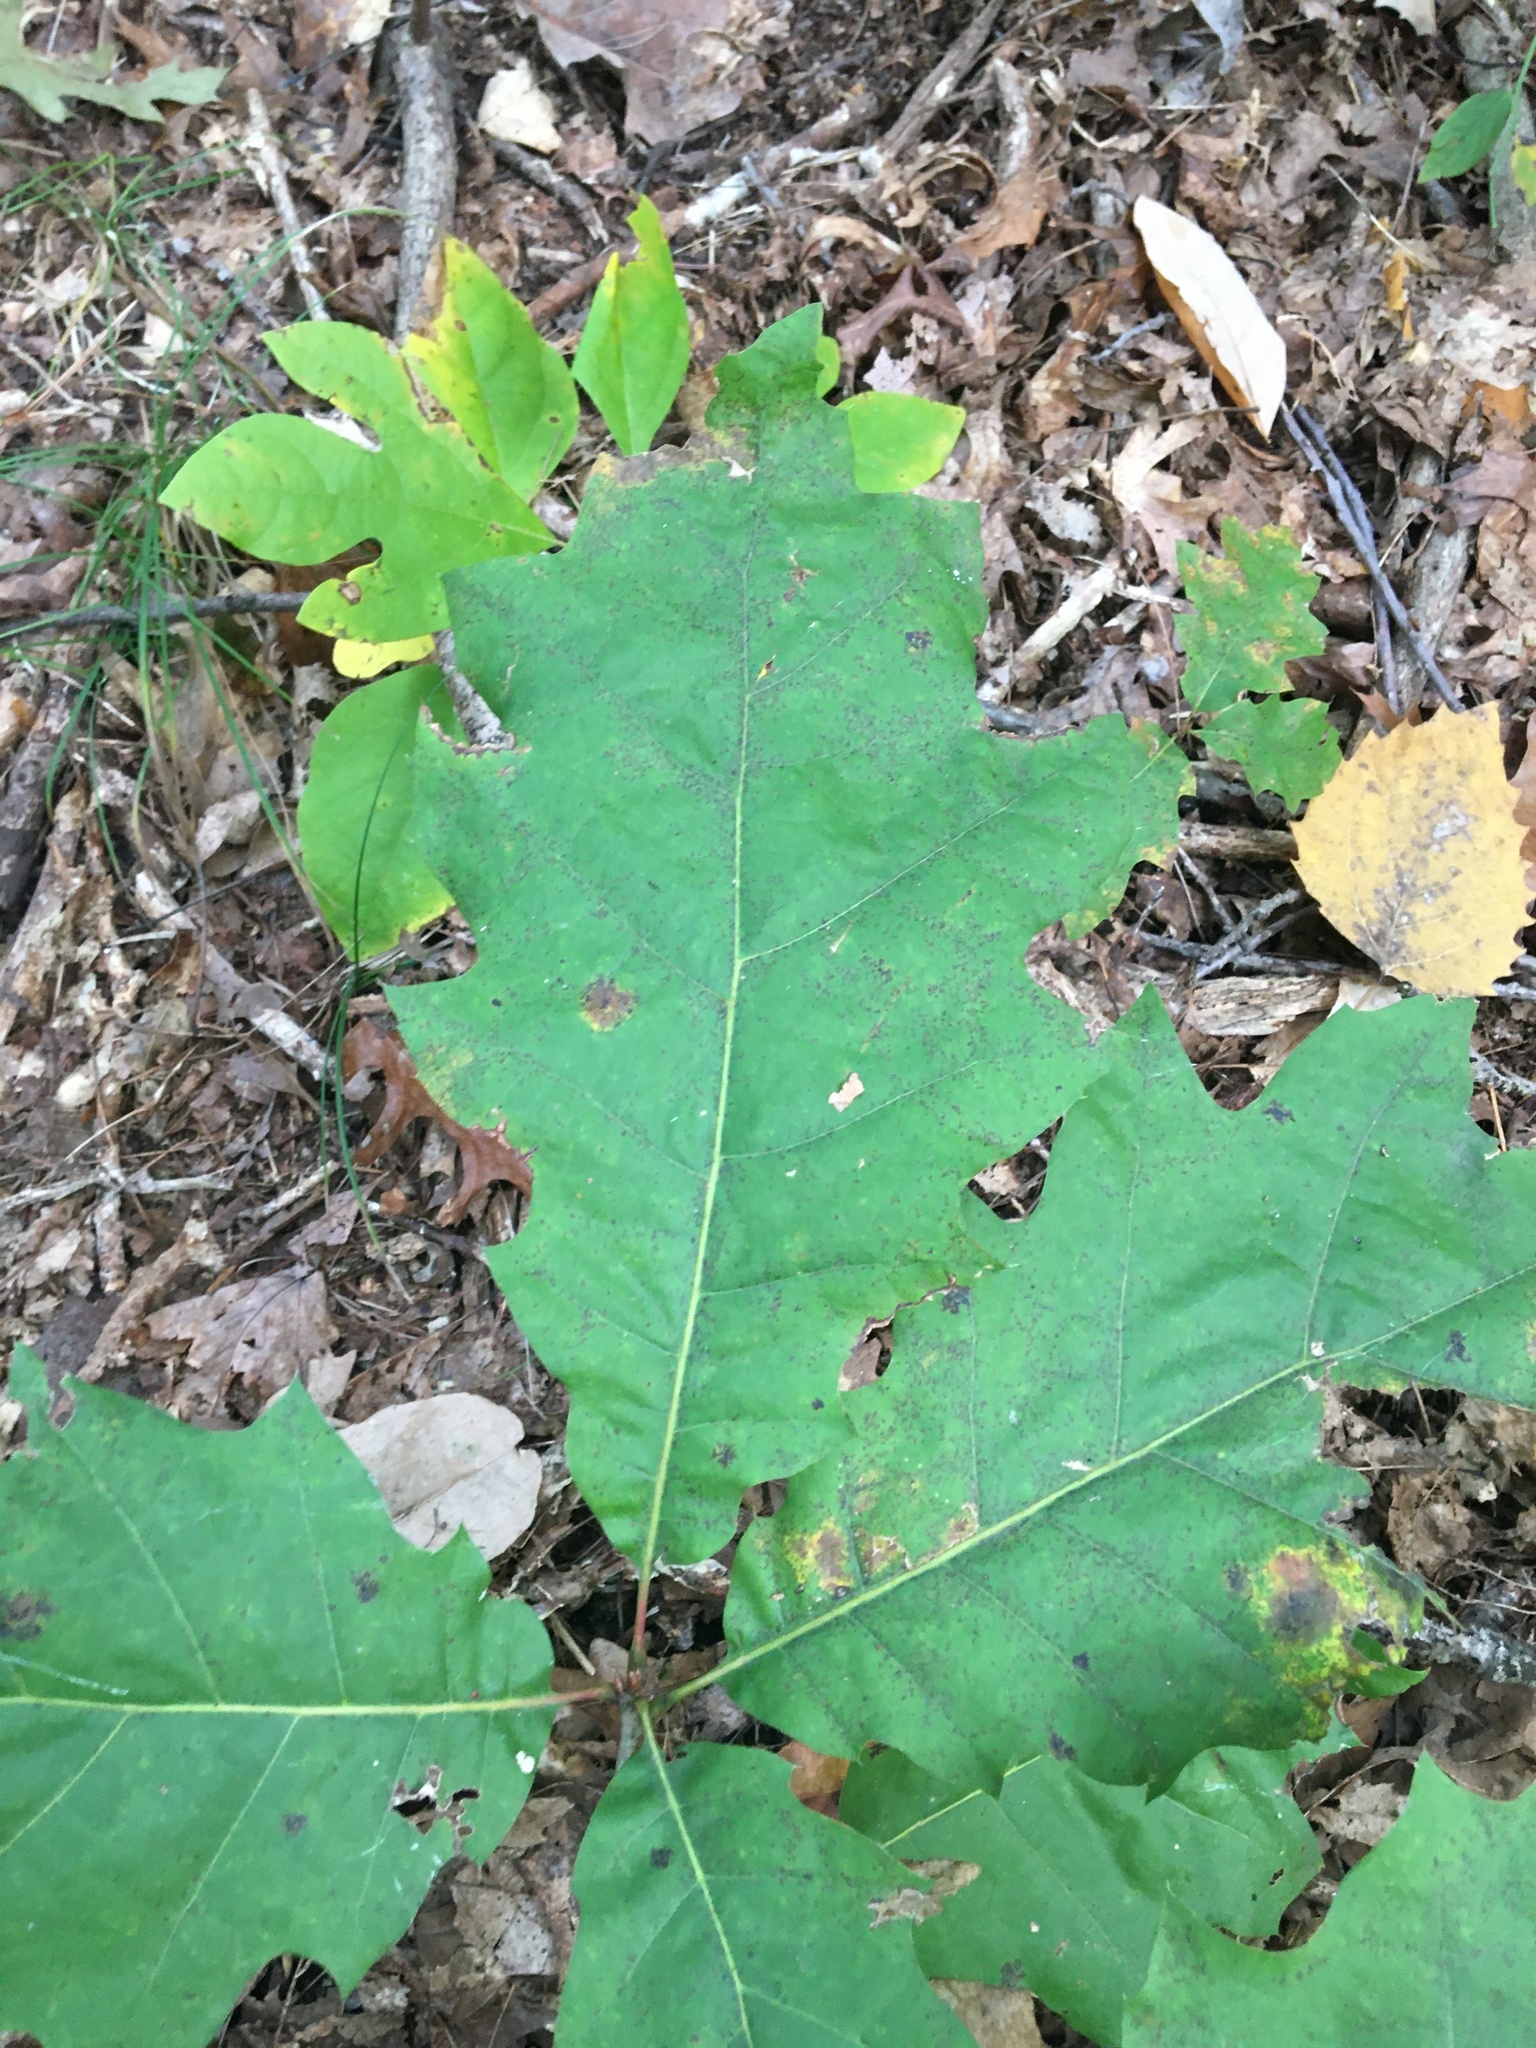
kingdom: Plantae
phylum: Tracheophyta
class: Magnoliopsida
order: Fagales
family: Fagaceae
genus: Quercus
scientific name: Quercus rubra
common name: Red oak
